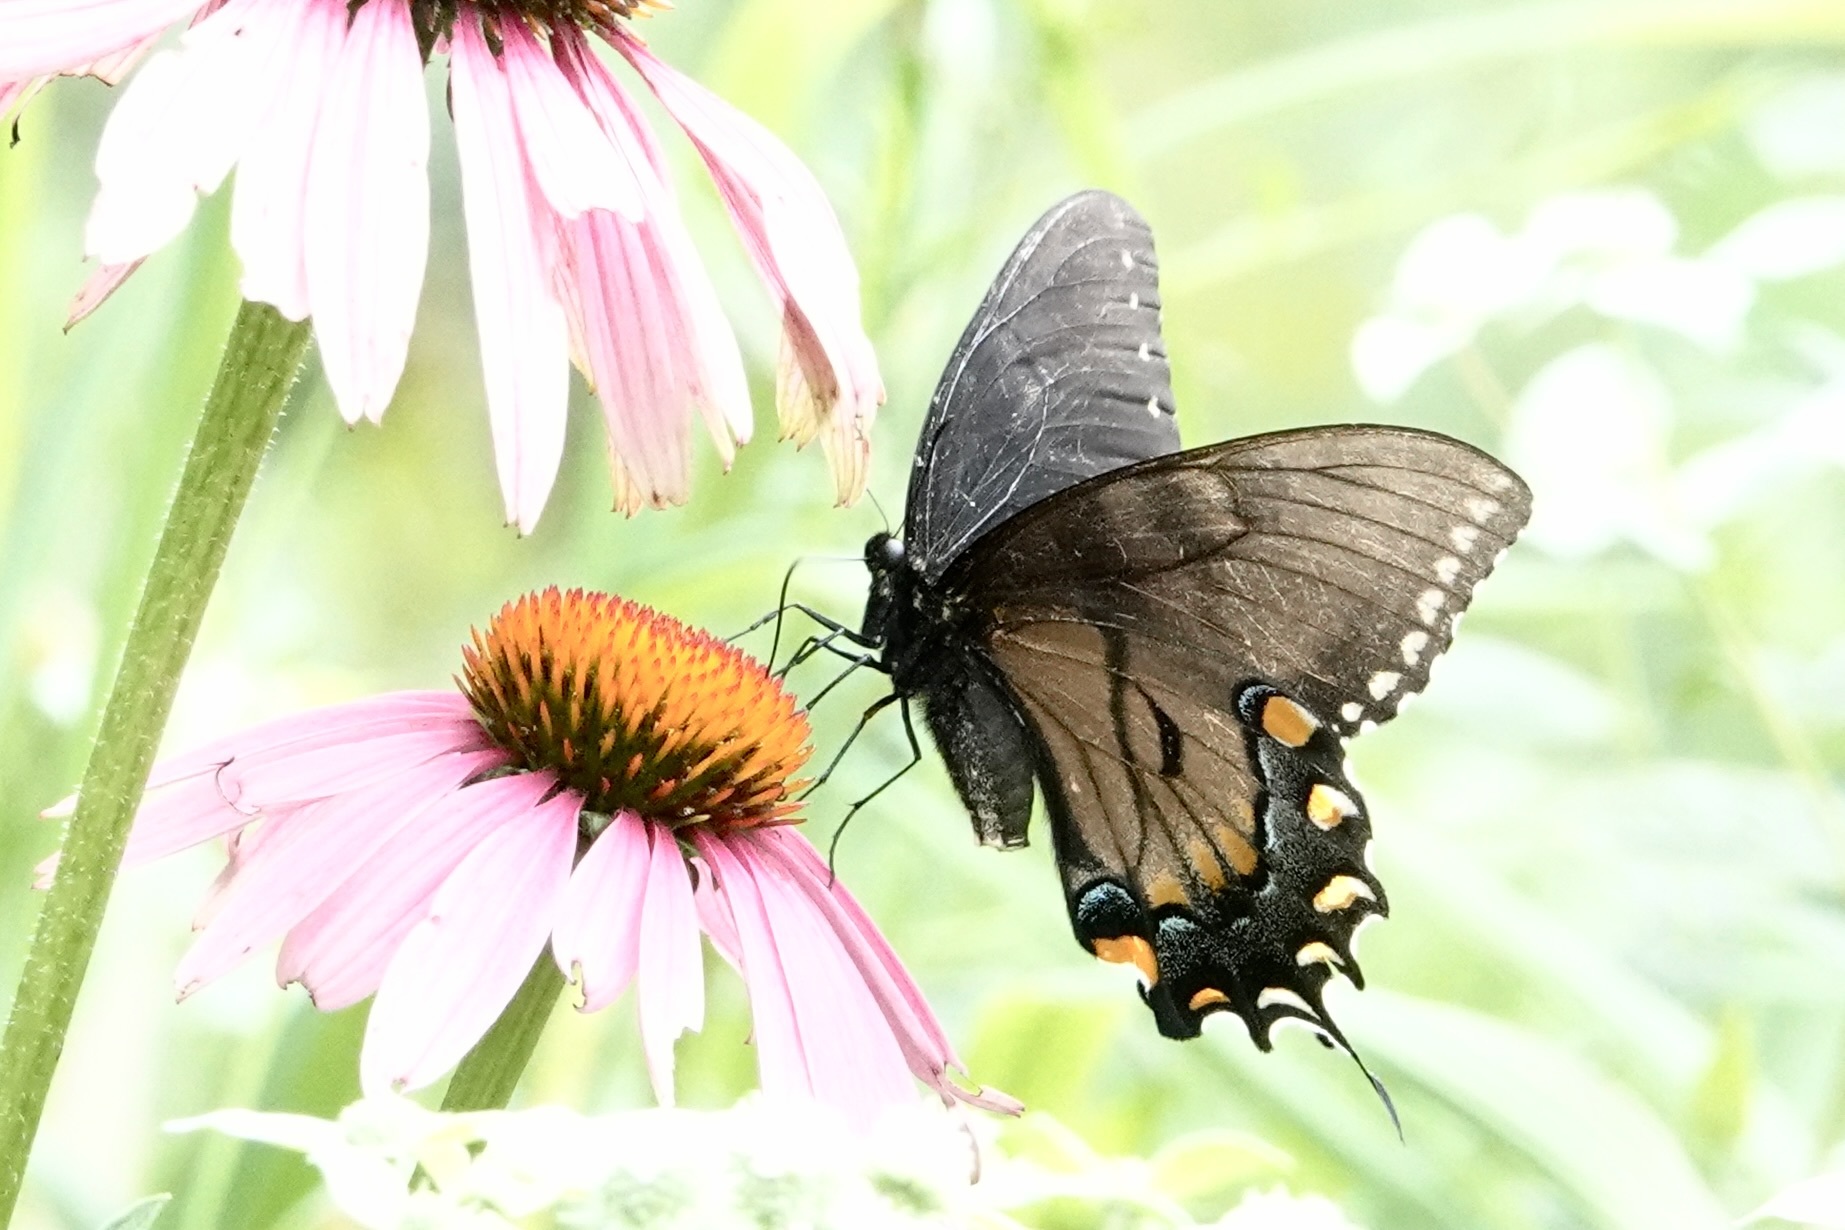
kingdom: Animalia
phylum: Arthropoda
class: Insecta
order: Lepidoptera
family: Papilionidae
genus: Papilio
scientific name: Papilio glaucus
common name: Tiger swallowtail
